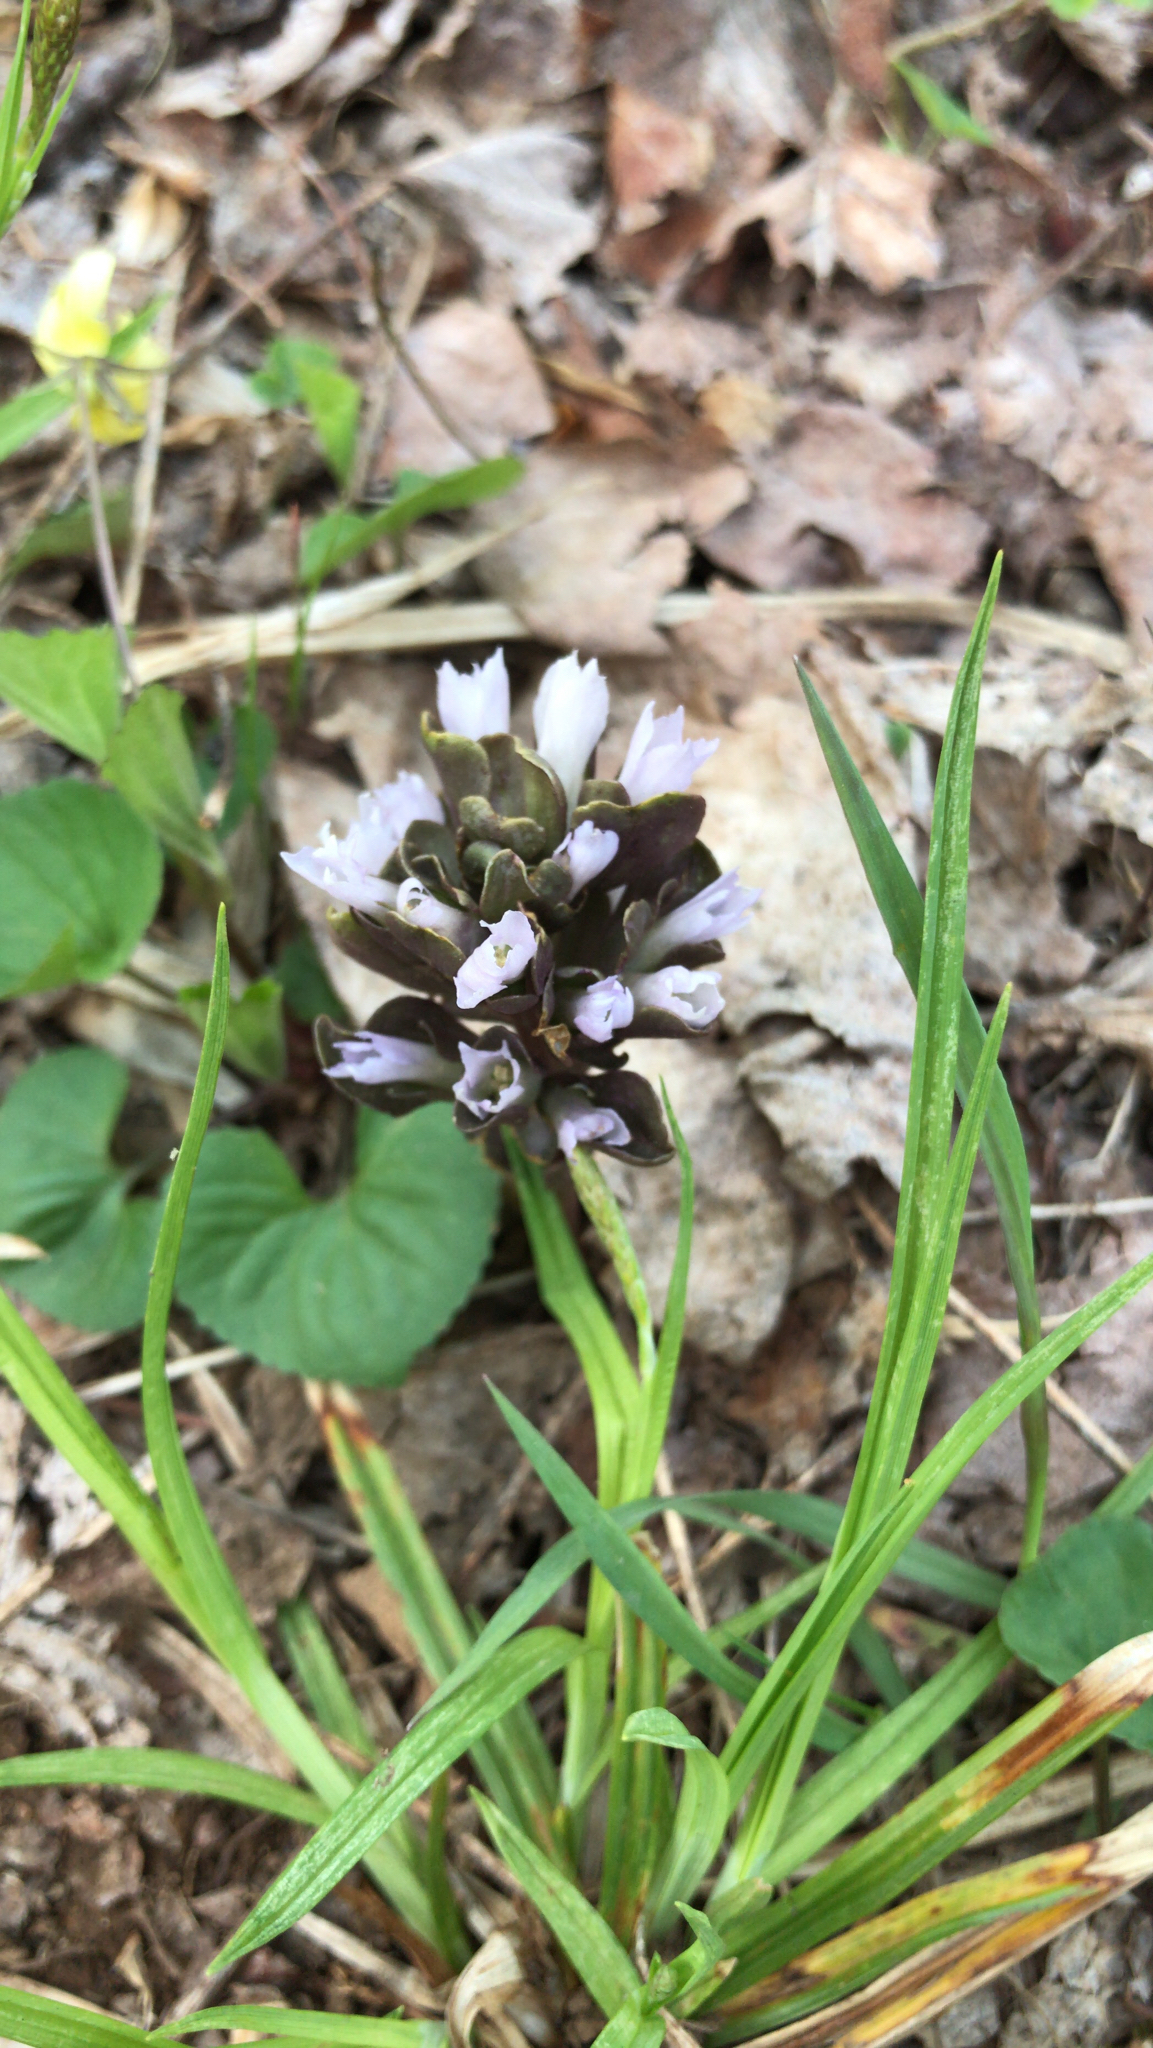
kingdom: Plantae
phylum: Tracheophyta
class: Magnoliopsida
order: Gentianales
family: Gentianaceae
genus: Obolaria
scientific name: Obolaria virginica
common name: Pennywort
